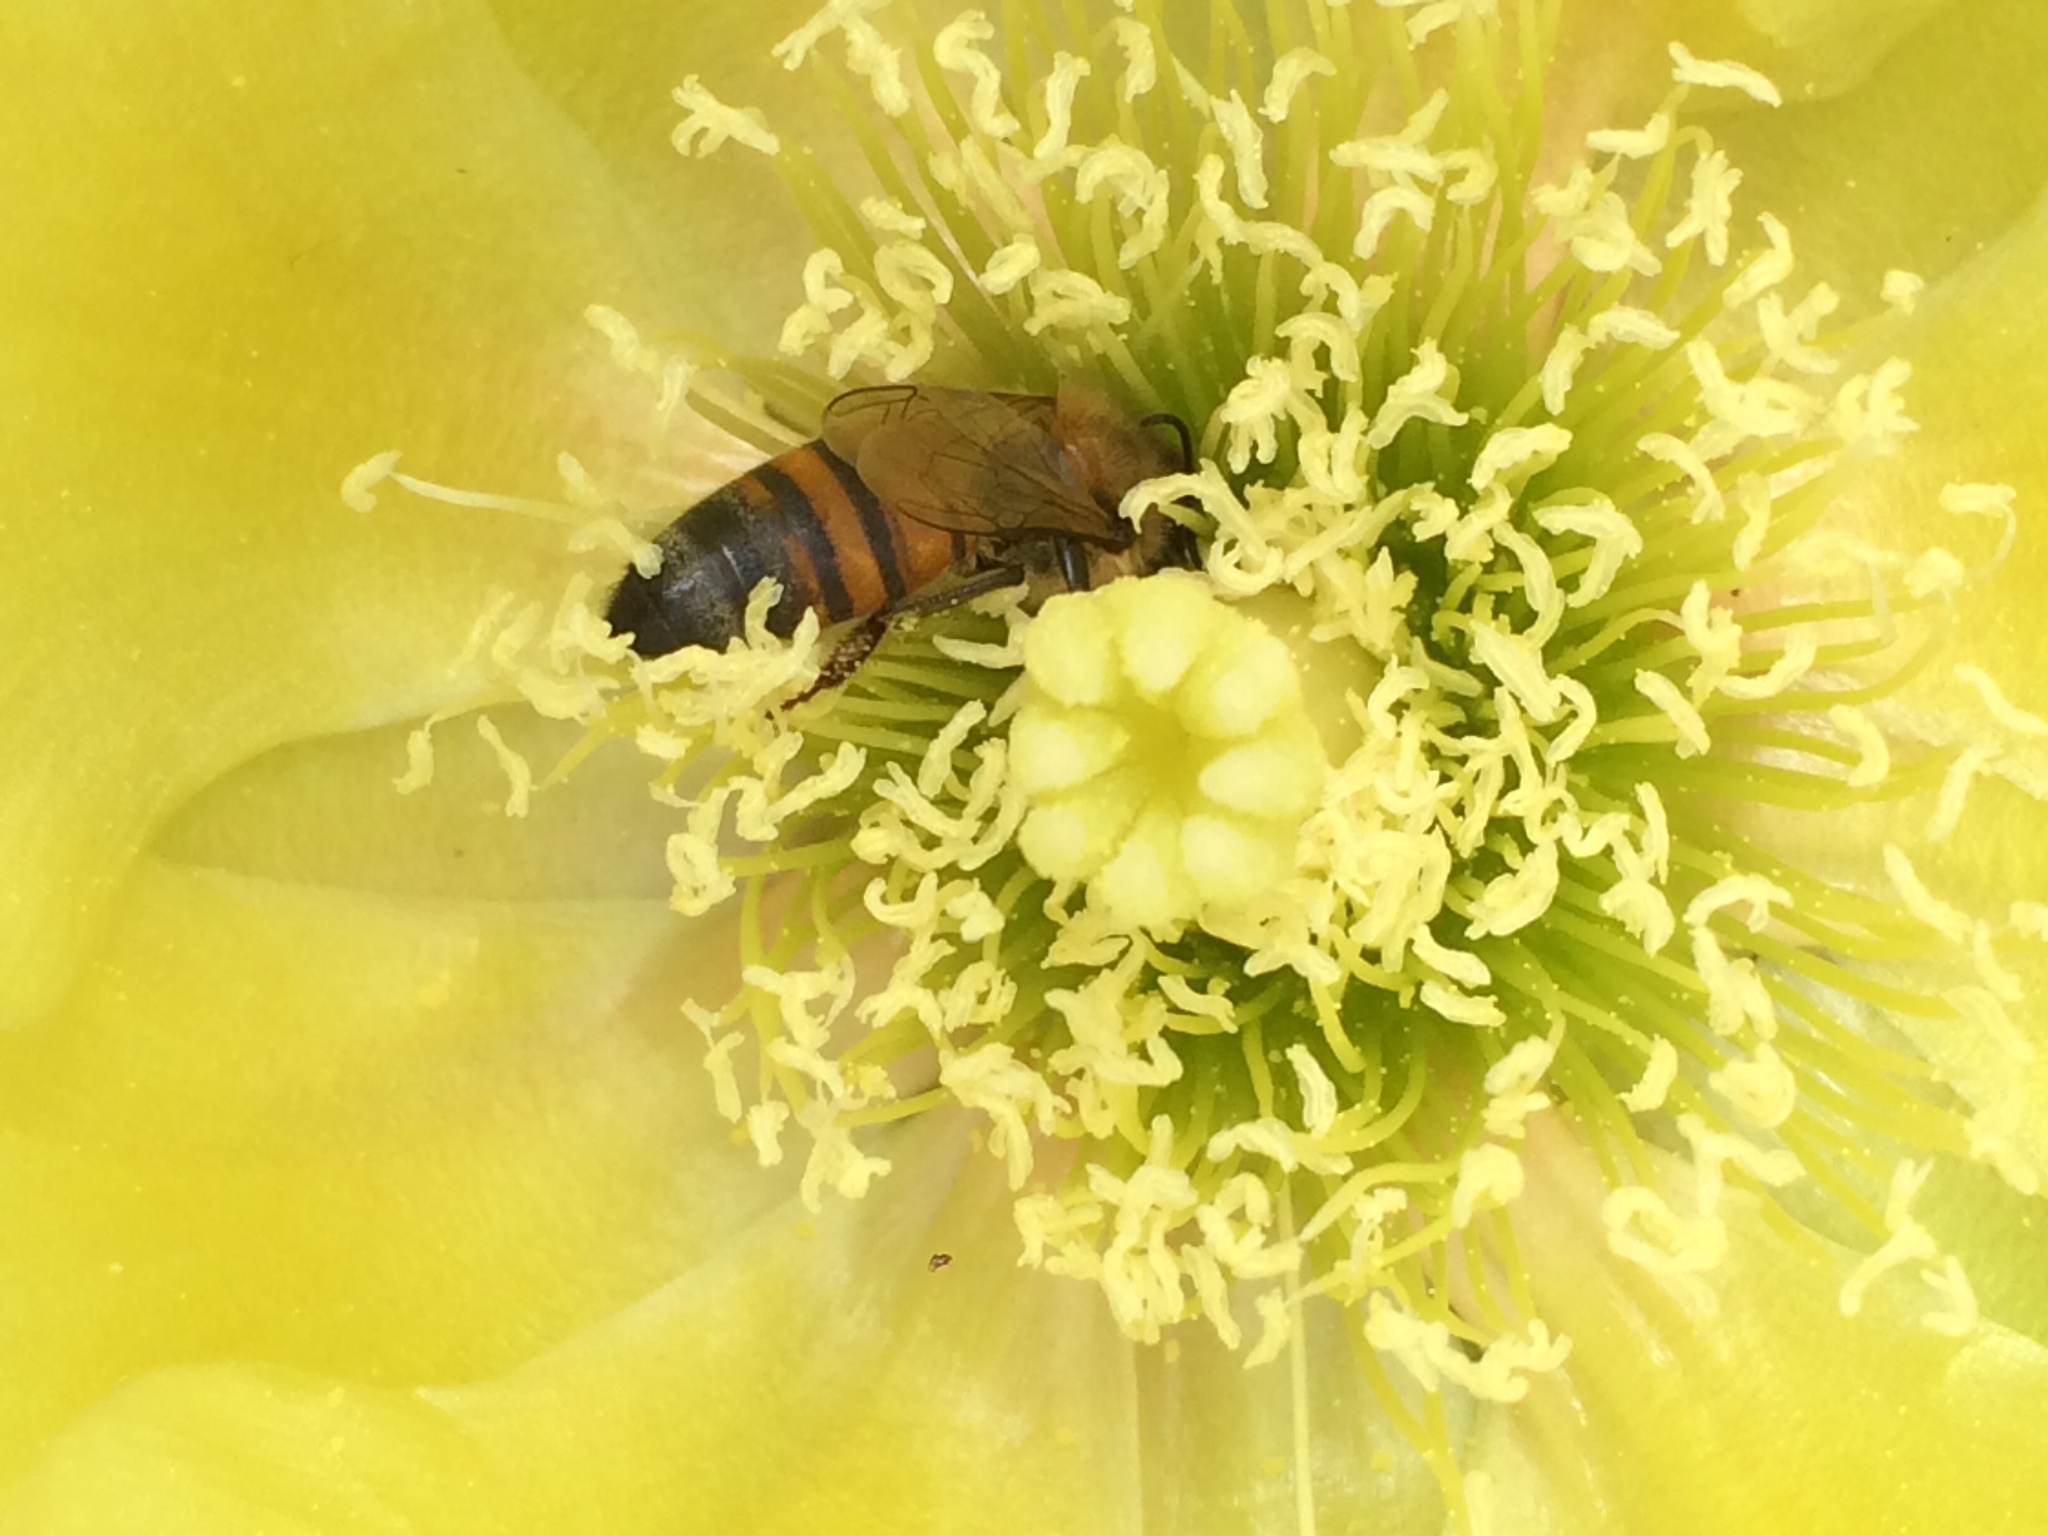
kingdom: Animalia
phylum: Arthropoda
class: Insecta
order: Hymenoptera
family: Apidae
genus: Apis
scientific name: Apis mellifera
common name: Honey bee
